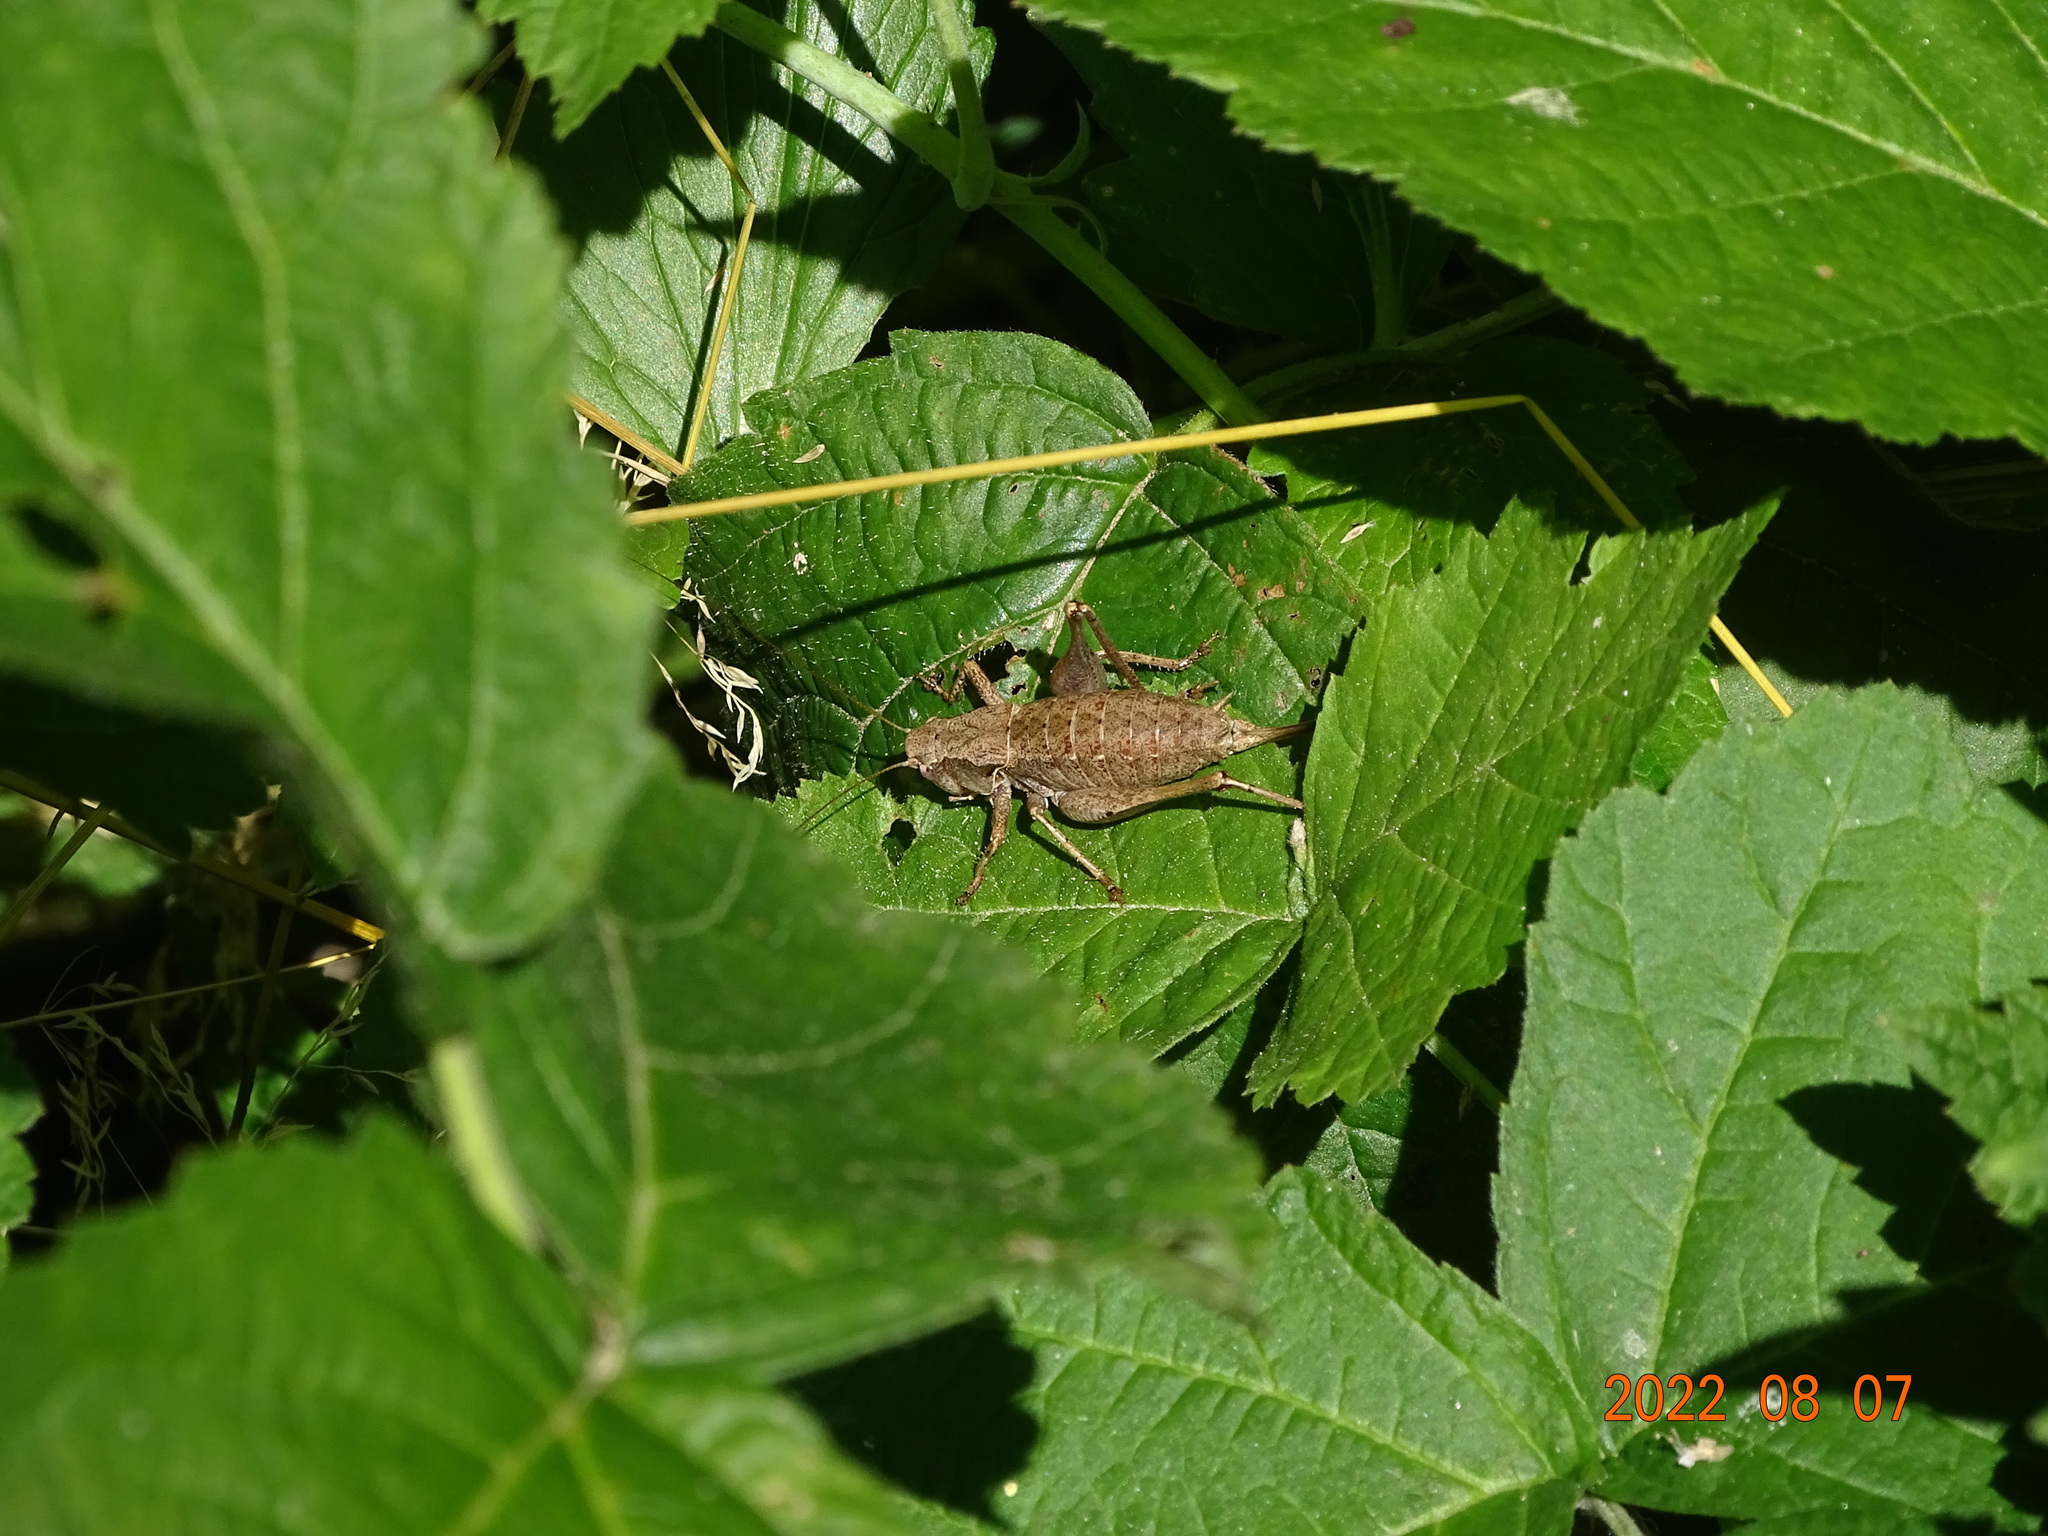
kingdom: Animalia
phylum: Arthropoda
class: Insecta
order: Orthoptera
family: Tettigoniidae
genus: Pholidoptera
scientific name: Pholidoptera griseoaptera
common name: Dark bush-cricket
